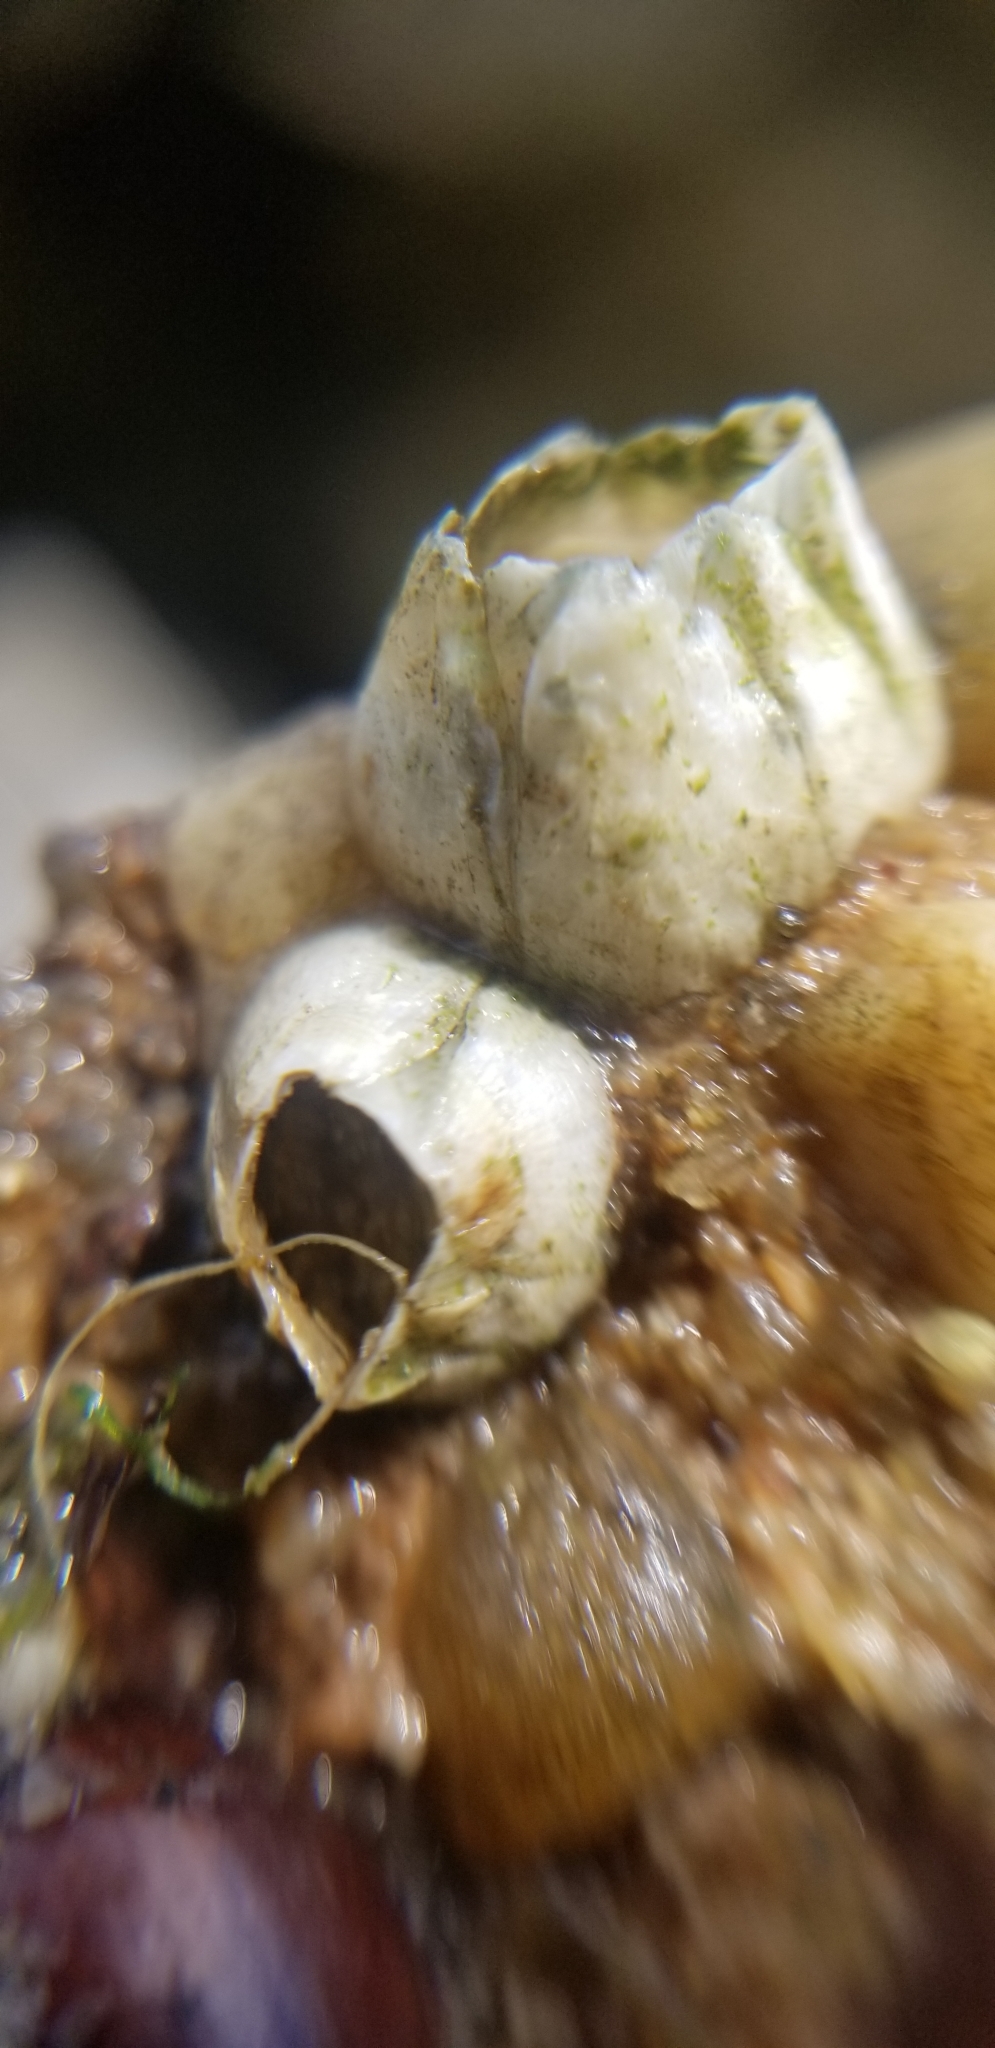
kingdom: Animalia
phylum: Arthropoda
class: Maxillopoda
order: Sessilia
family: Balanidae
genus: Amphibalanus
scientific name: Amphibalanus improvisus
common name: Bay barnacle
